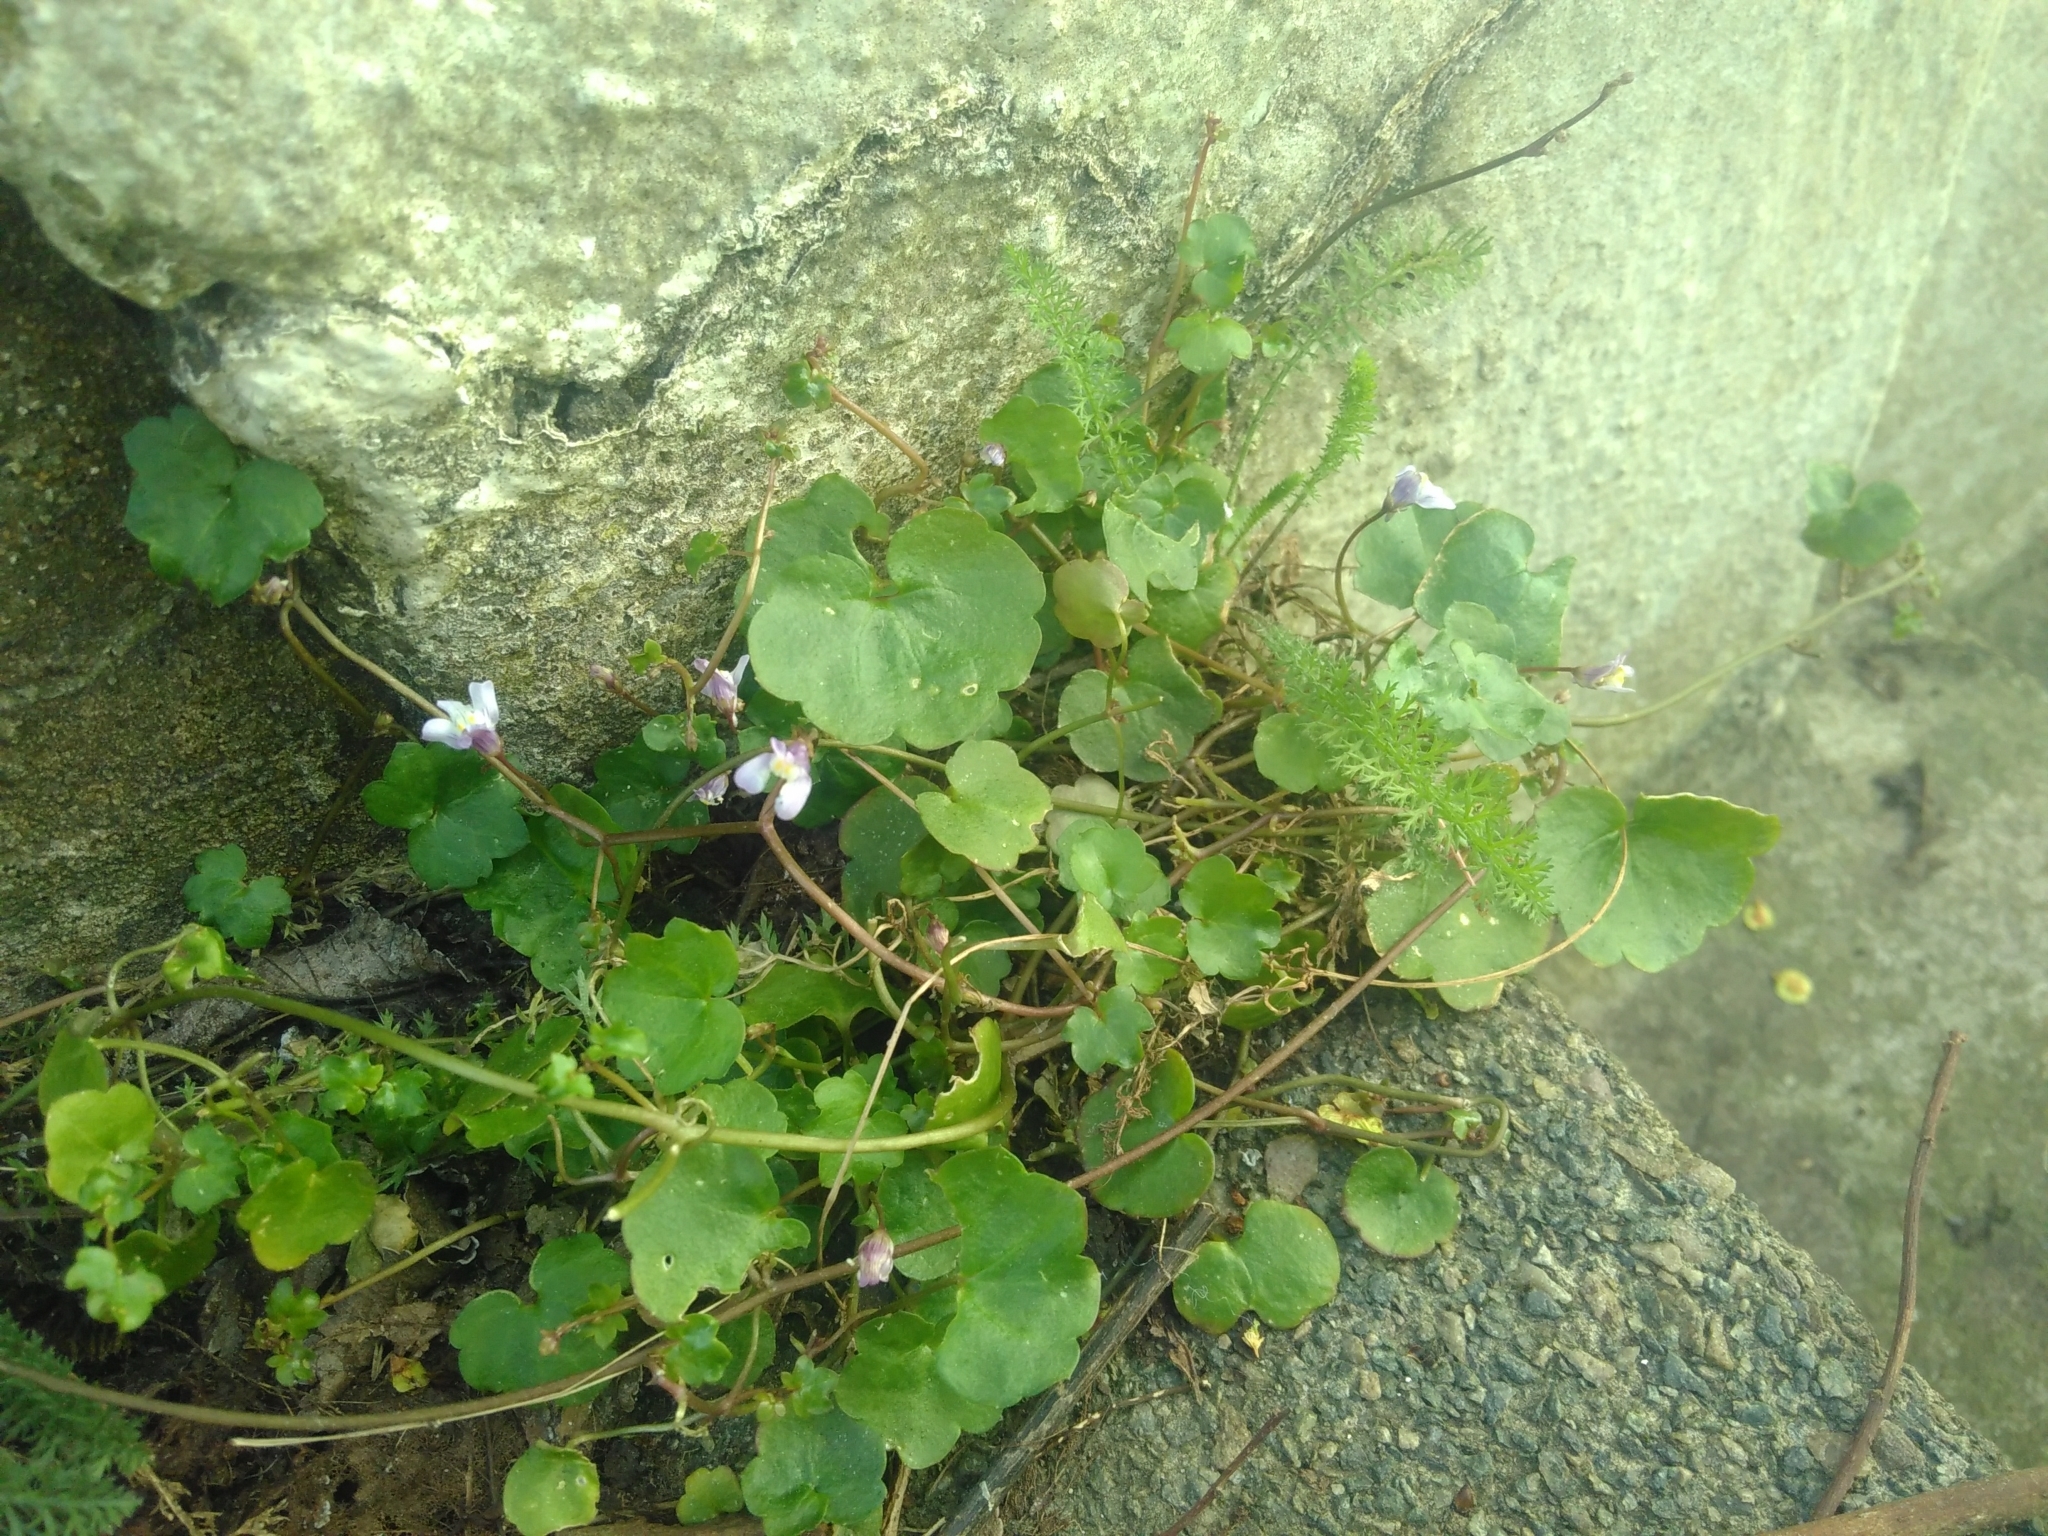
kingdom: Plantae
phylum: Tracheophyta
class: Magnoliopsida
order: Lamiales
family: Plantaginaceae
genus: Cymbalaria
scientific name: Cymbalaria muralis
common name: Ivy-leaved toadflax
